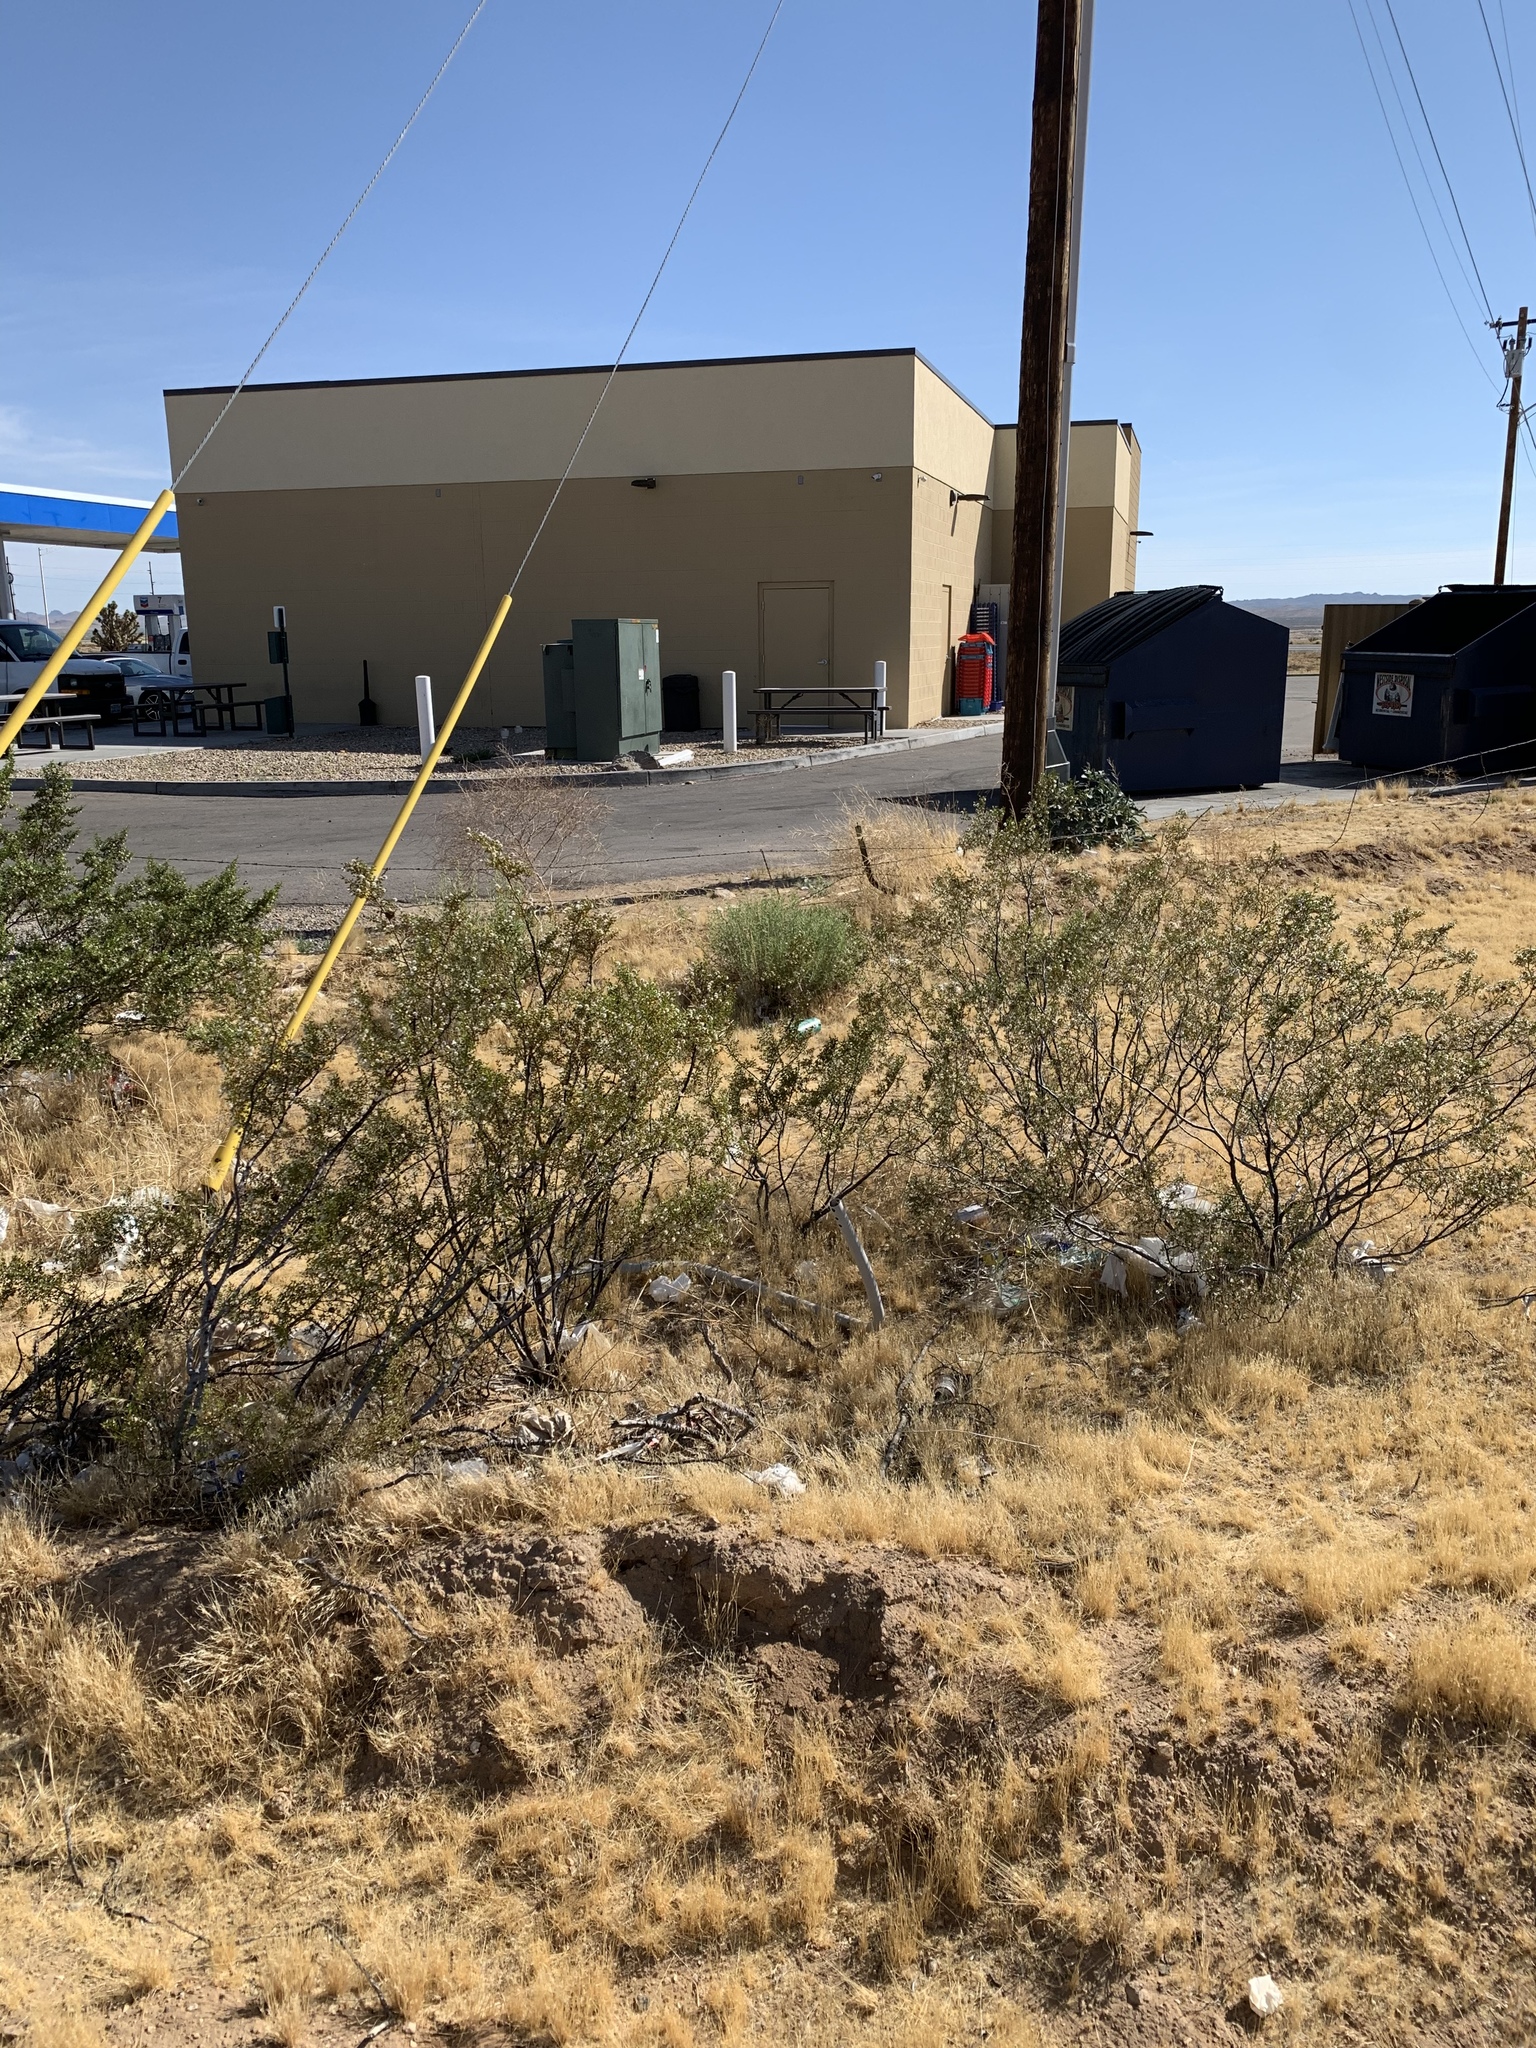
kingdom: Plantae
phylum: Tracheophyta
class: Magnoliopsida
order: Zygophyllales
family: Zygophyllaceae
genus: Larrea
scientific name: Larrea tridentata
